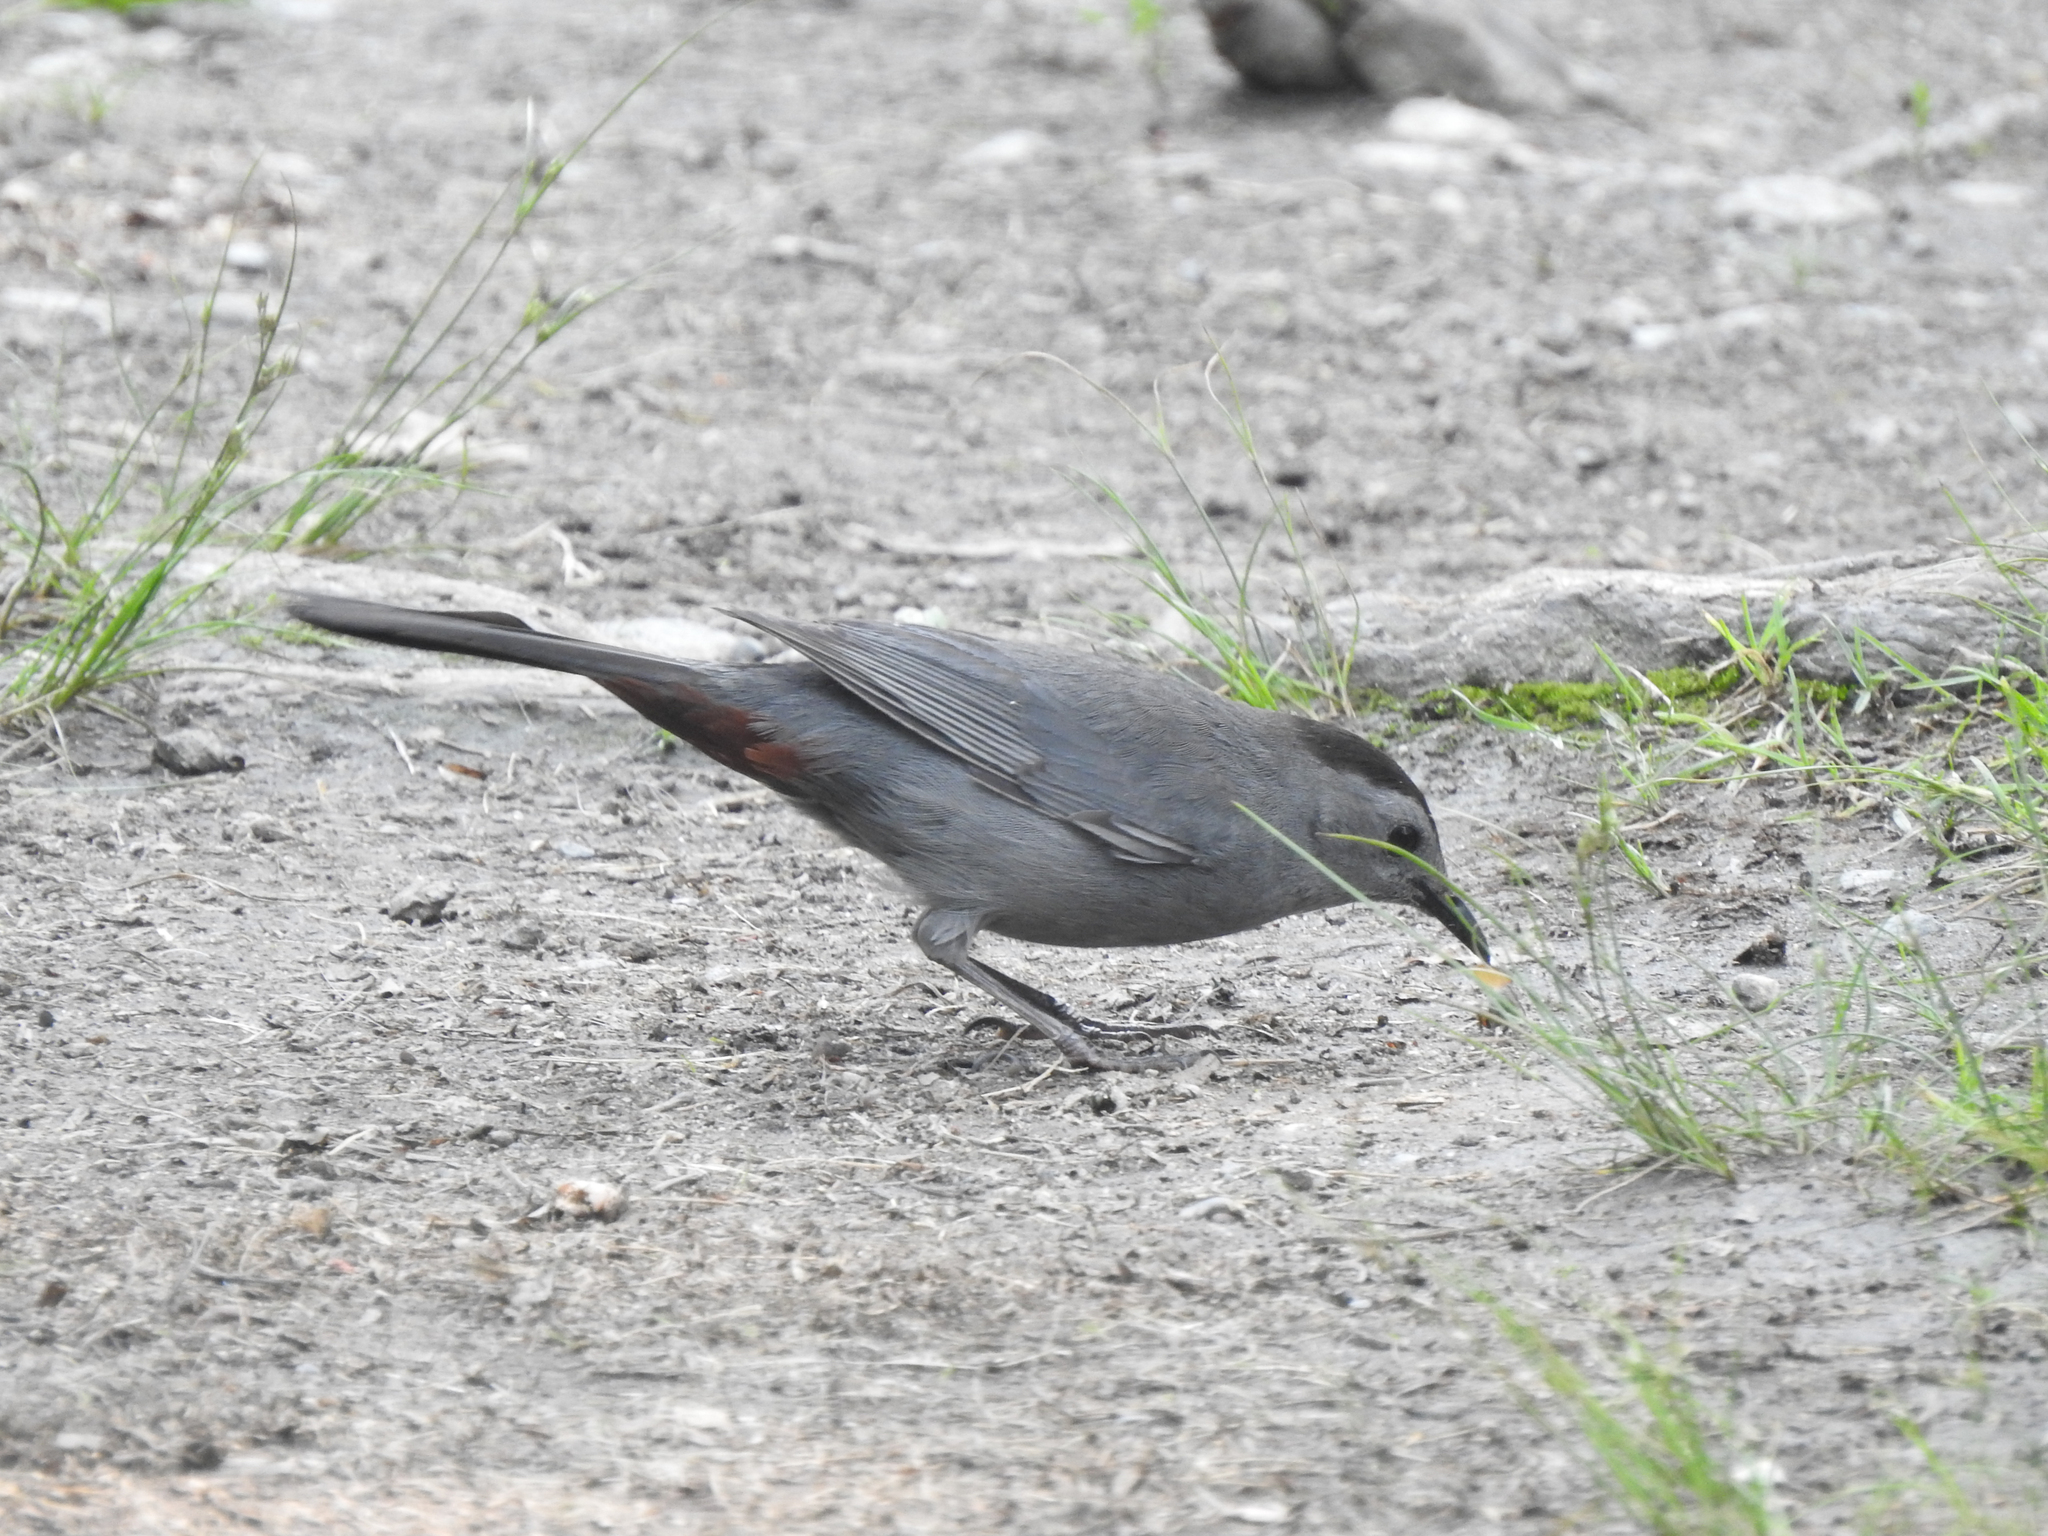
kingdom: Animalia
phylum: Chordata
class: Aves
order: Passeriformes
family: Mimidae
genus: Dumetella
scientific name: Dumetella carolinensis
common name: Gray catbird
